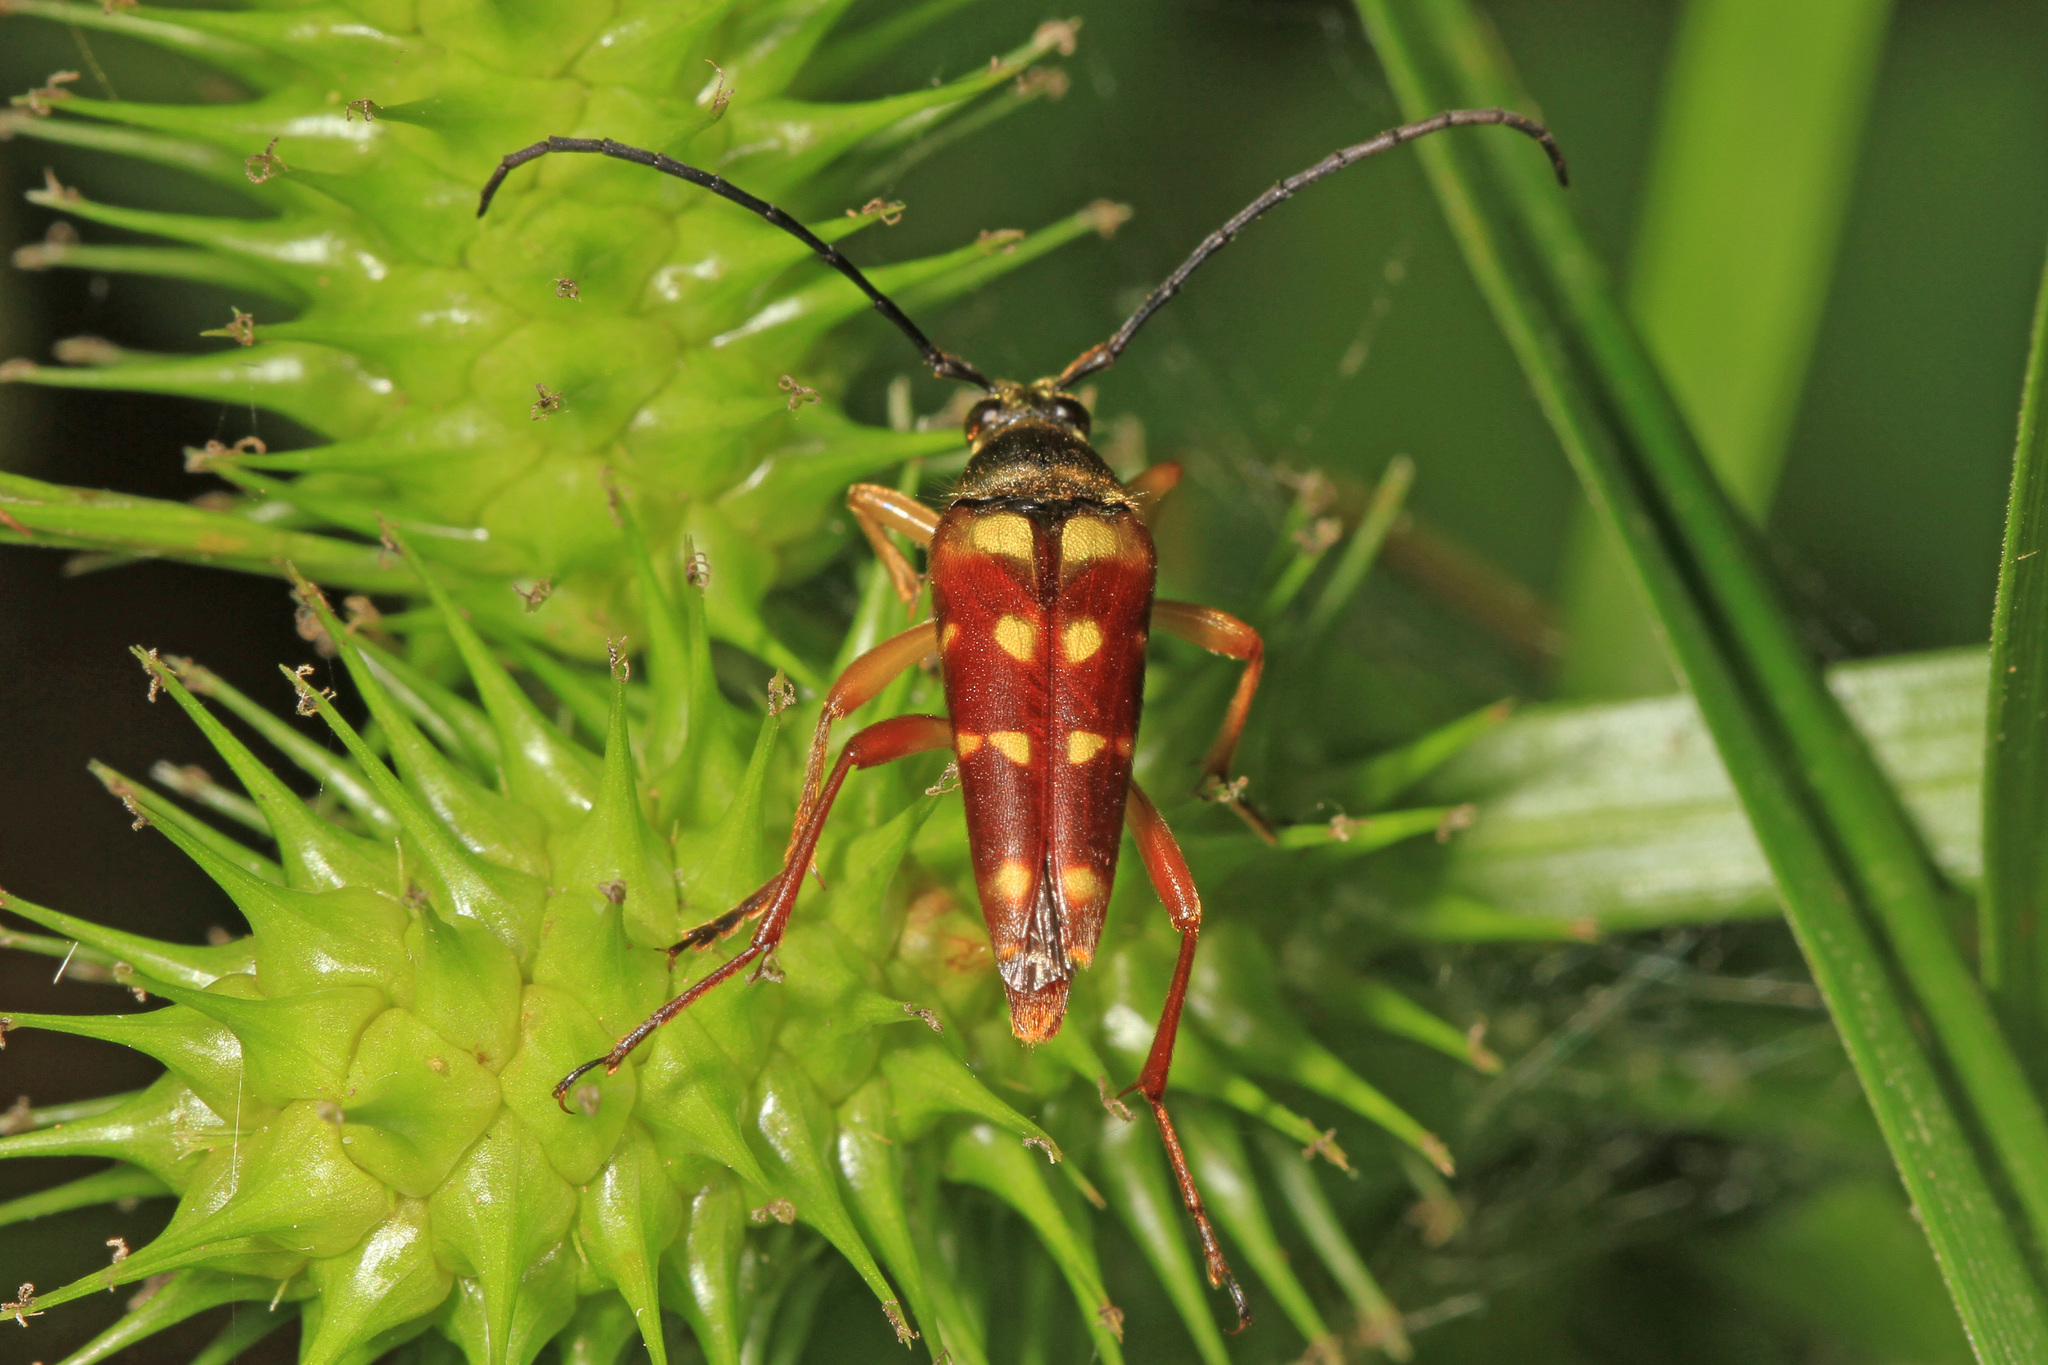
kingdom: Animalia
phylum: Arthropoda
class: Insecta
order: Coleoptera
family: Cerambycidae
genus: Typocerus
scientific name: Typocerus velutinus
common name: Banded longhorn beetle
